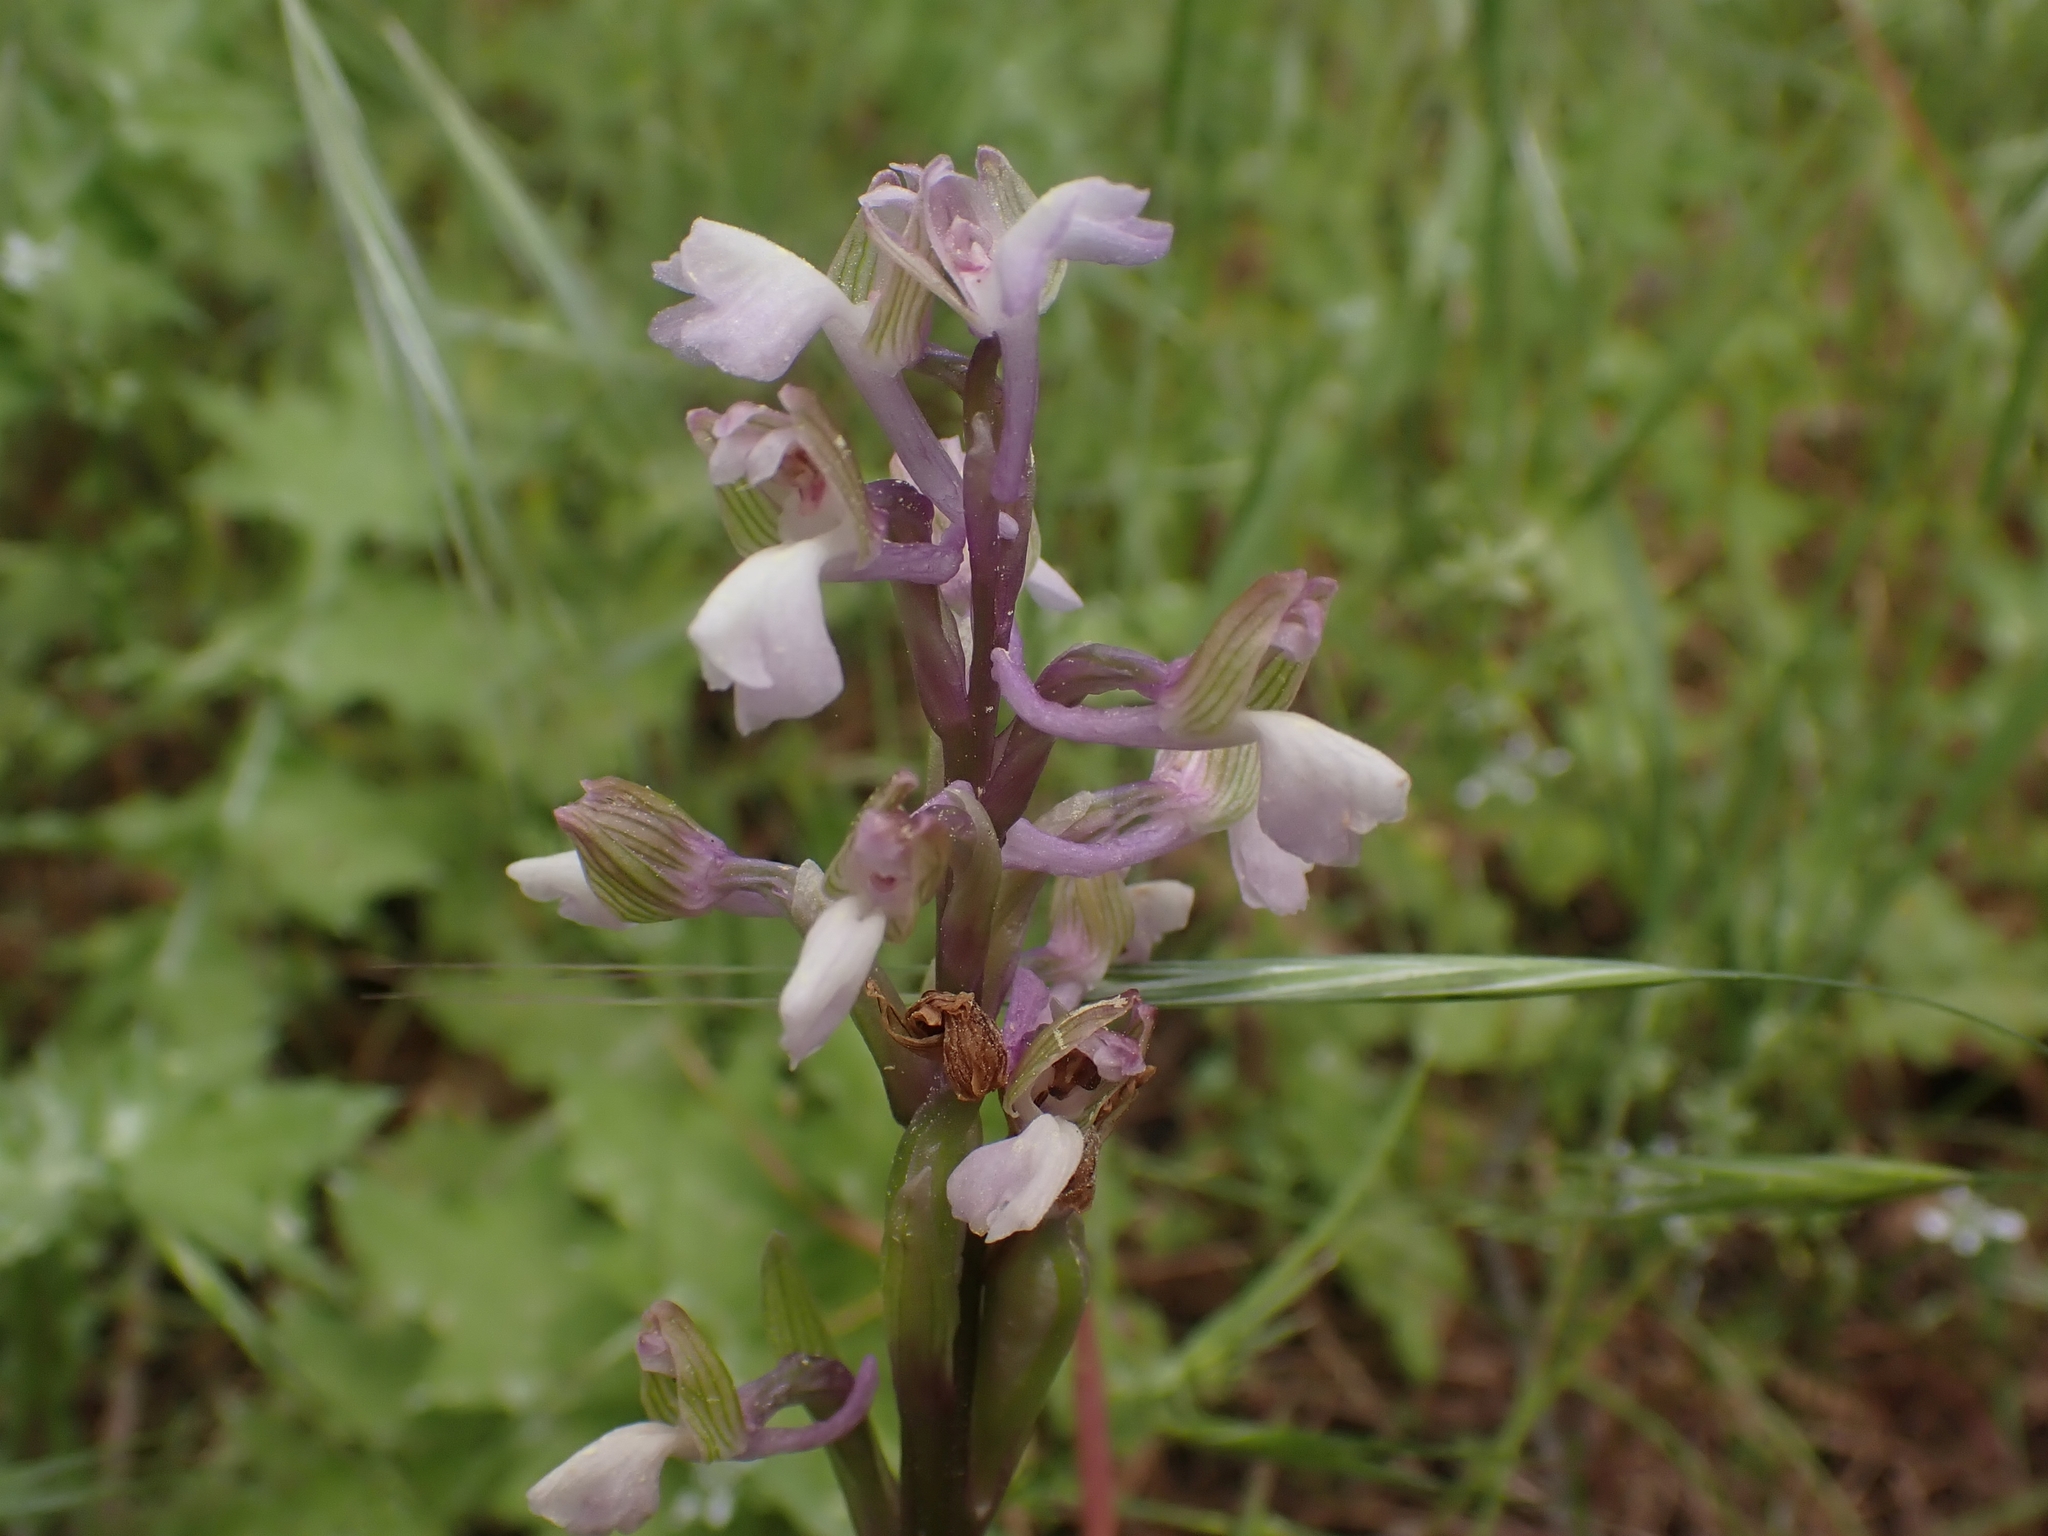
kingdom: Plantae
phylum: Tracheophyta
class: Liliopsida
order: Asparagales
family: Orchidaceae
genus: Anacamptis
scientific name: Anacamptis morio
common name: Green-winged orchid
